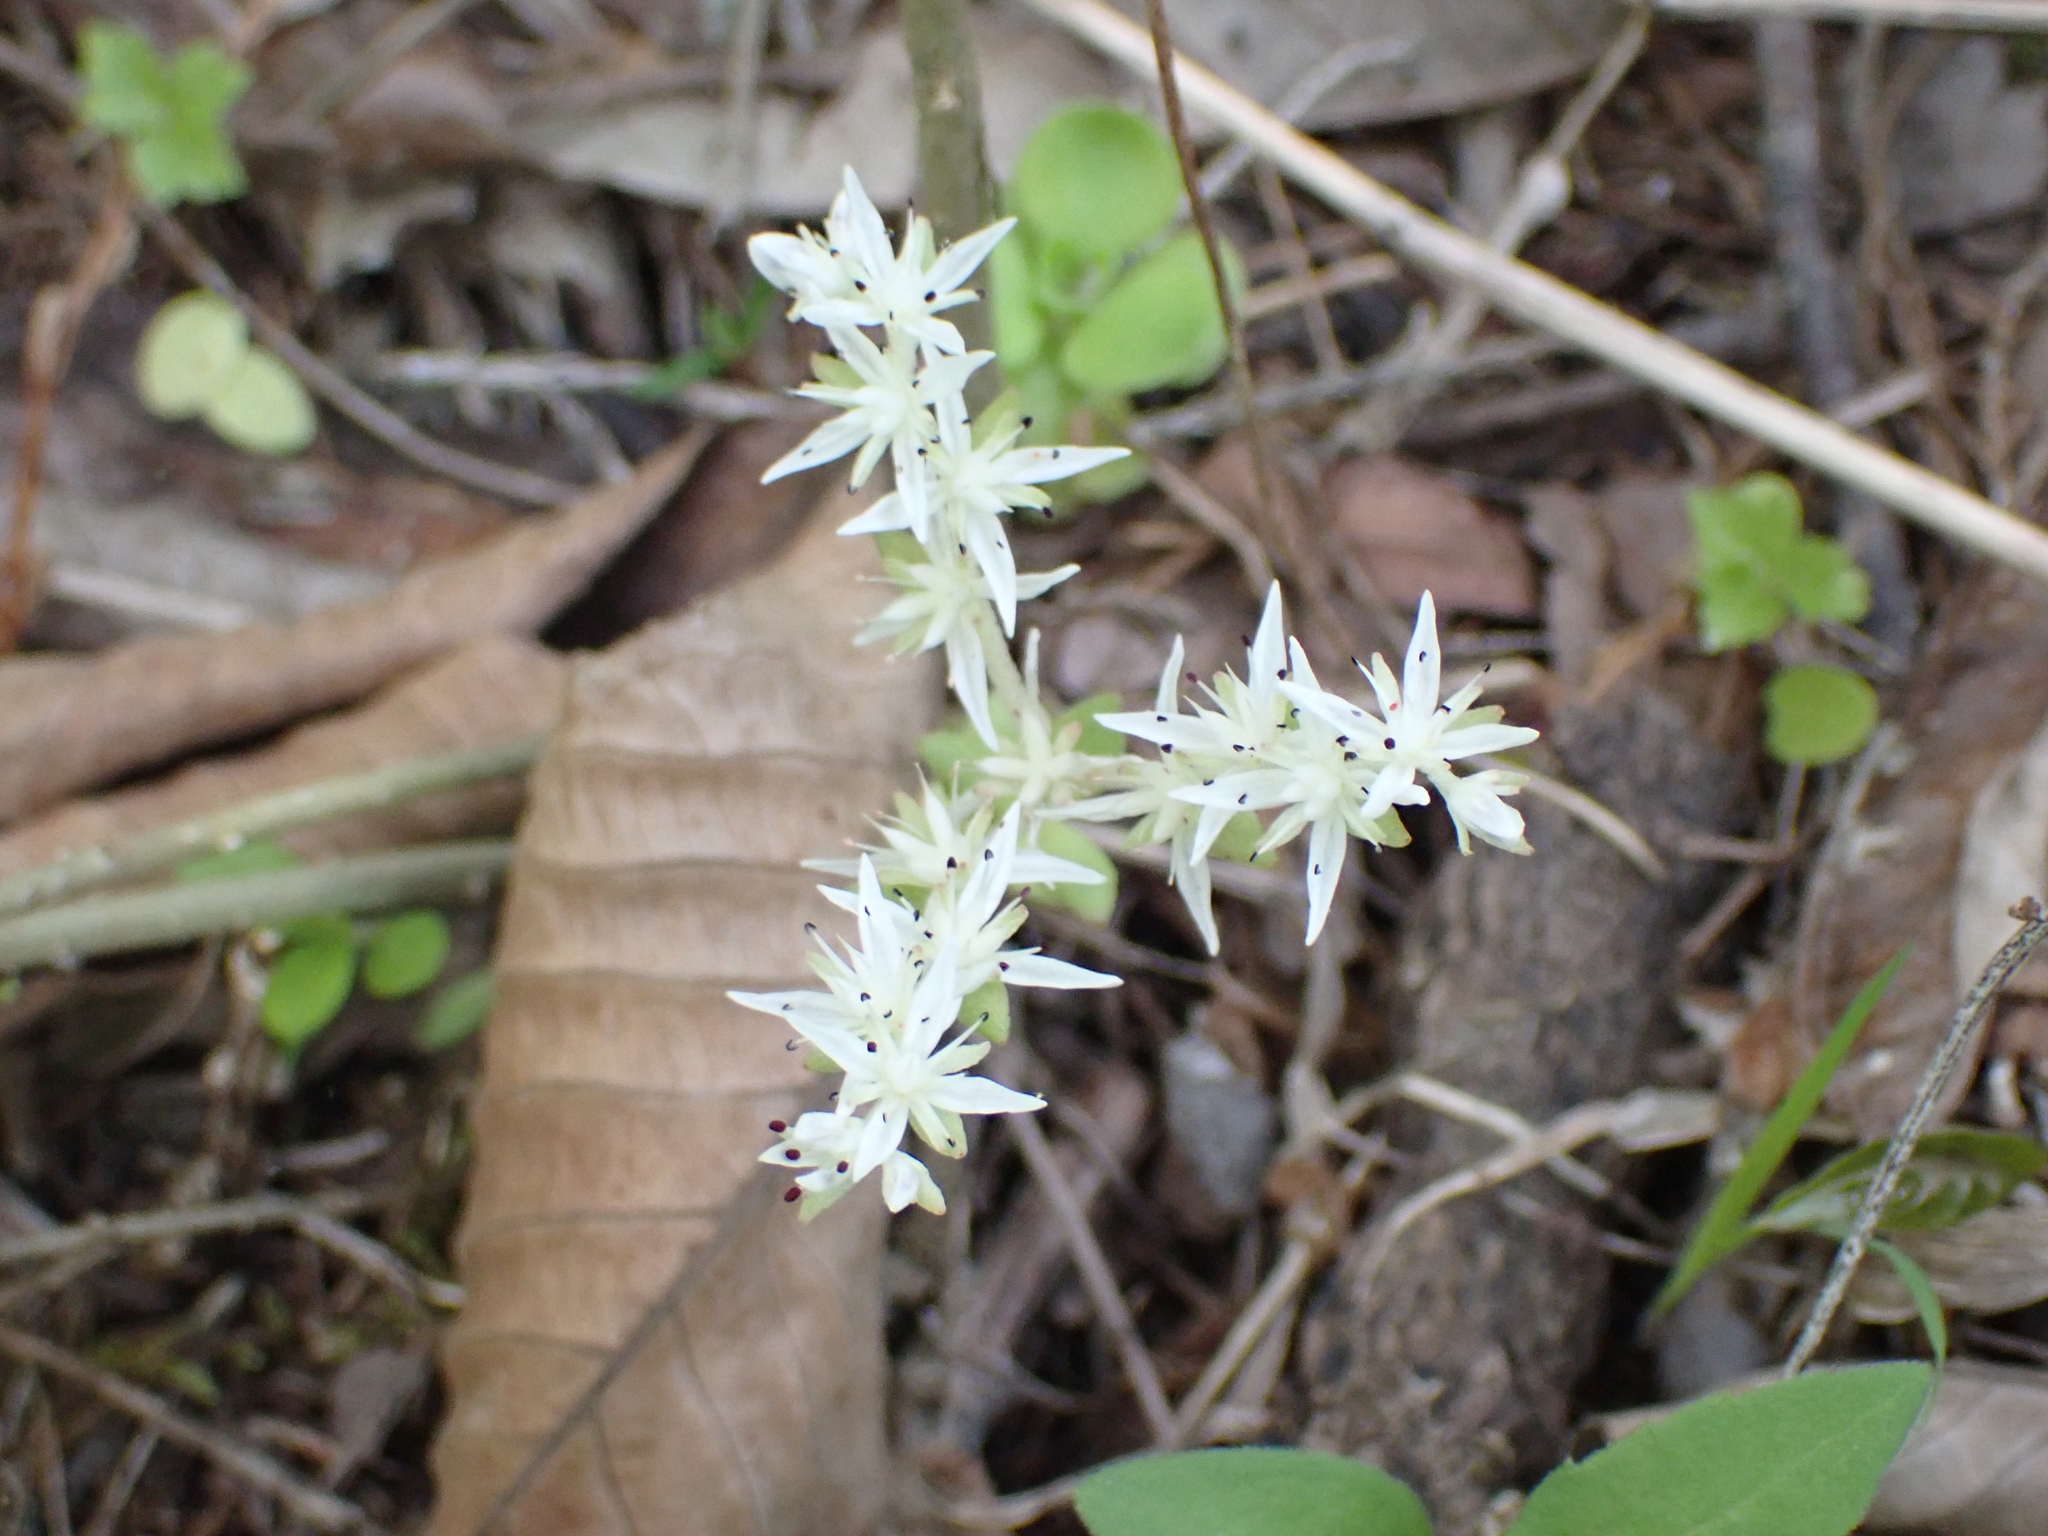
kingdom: Plantae
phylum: Tracheophyta
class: Magnoliopsida
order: Saxifragales
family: Crassulaceae
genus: Sedum
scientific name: Sedum ternatum
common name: Wild stonecrop
